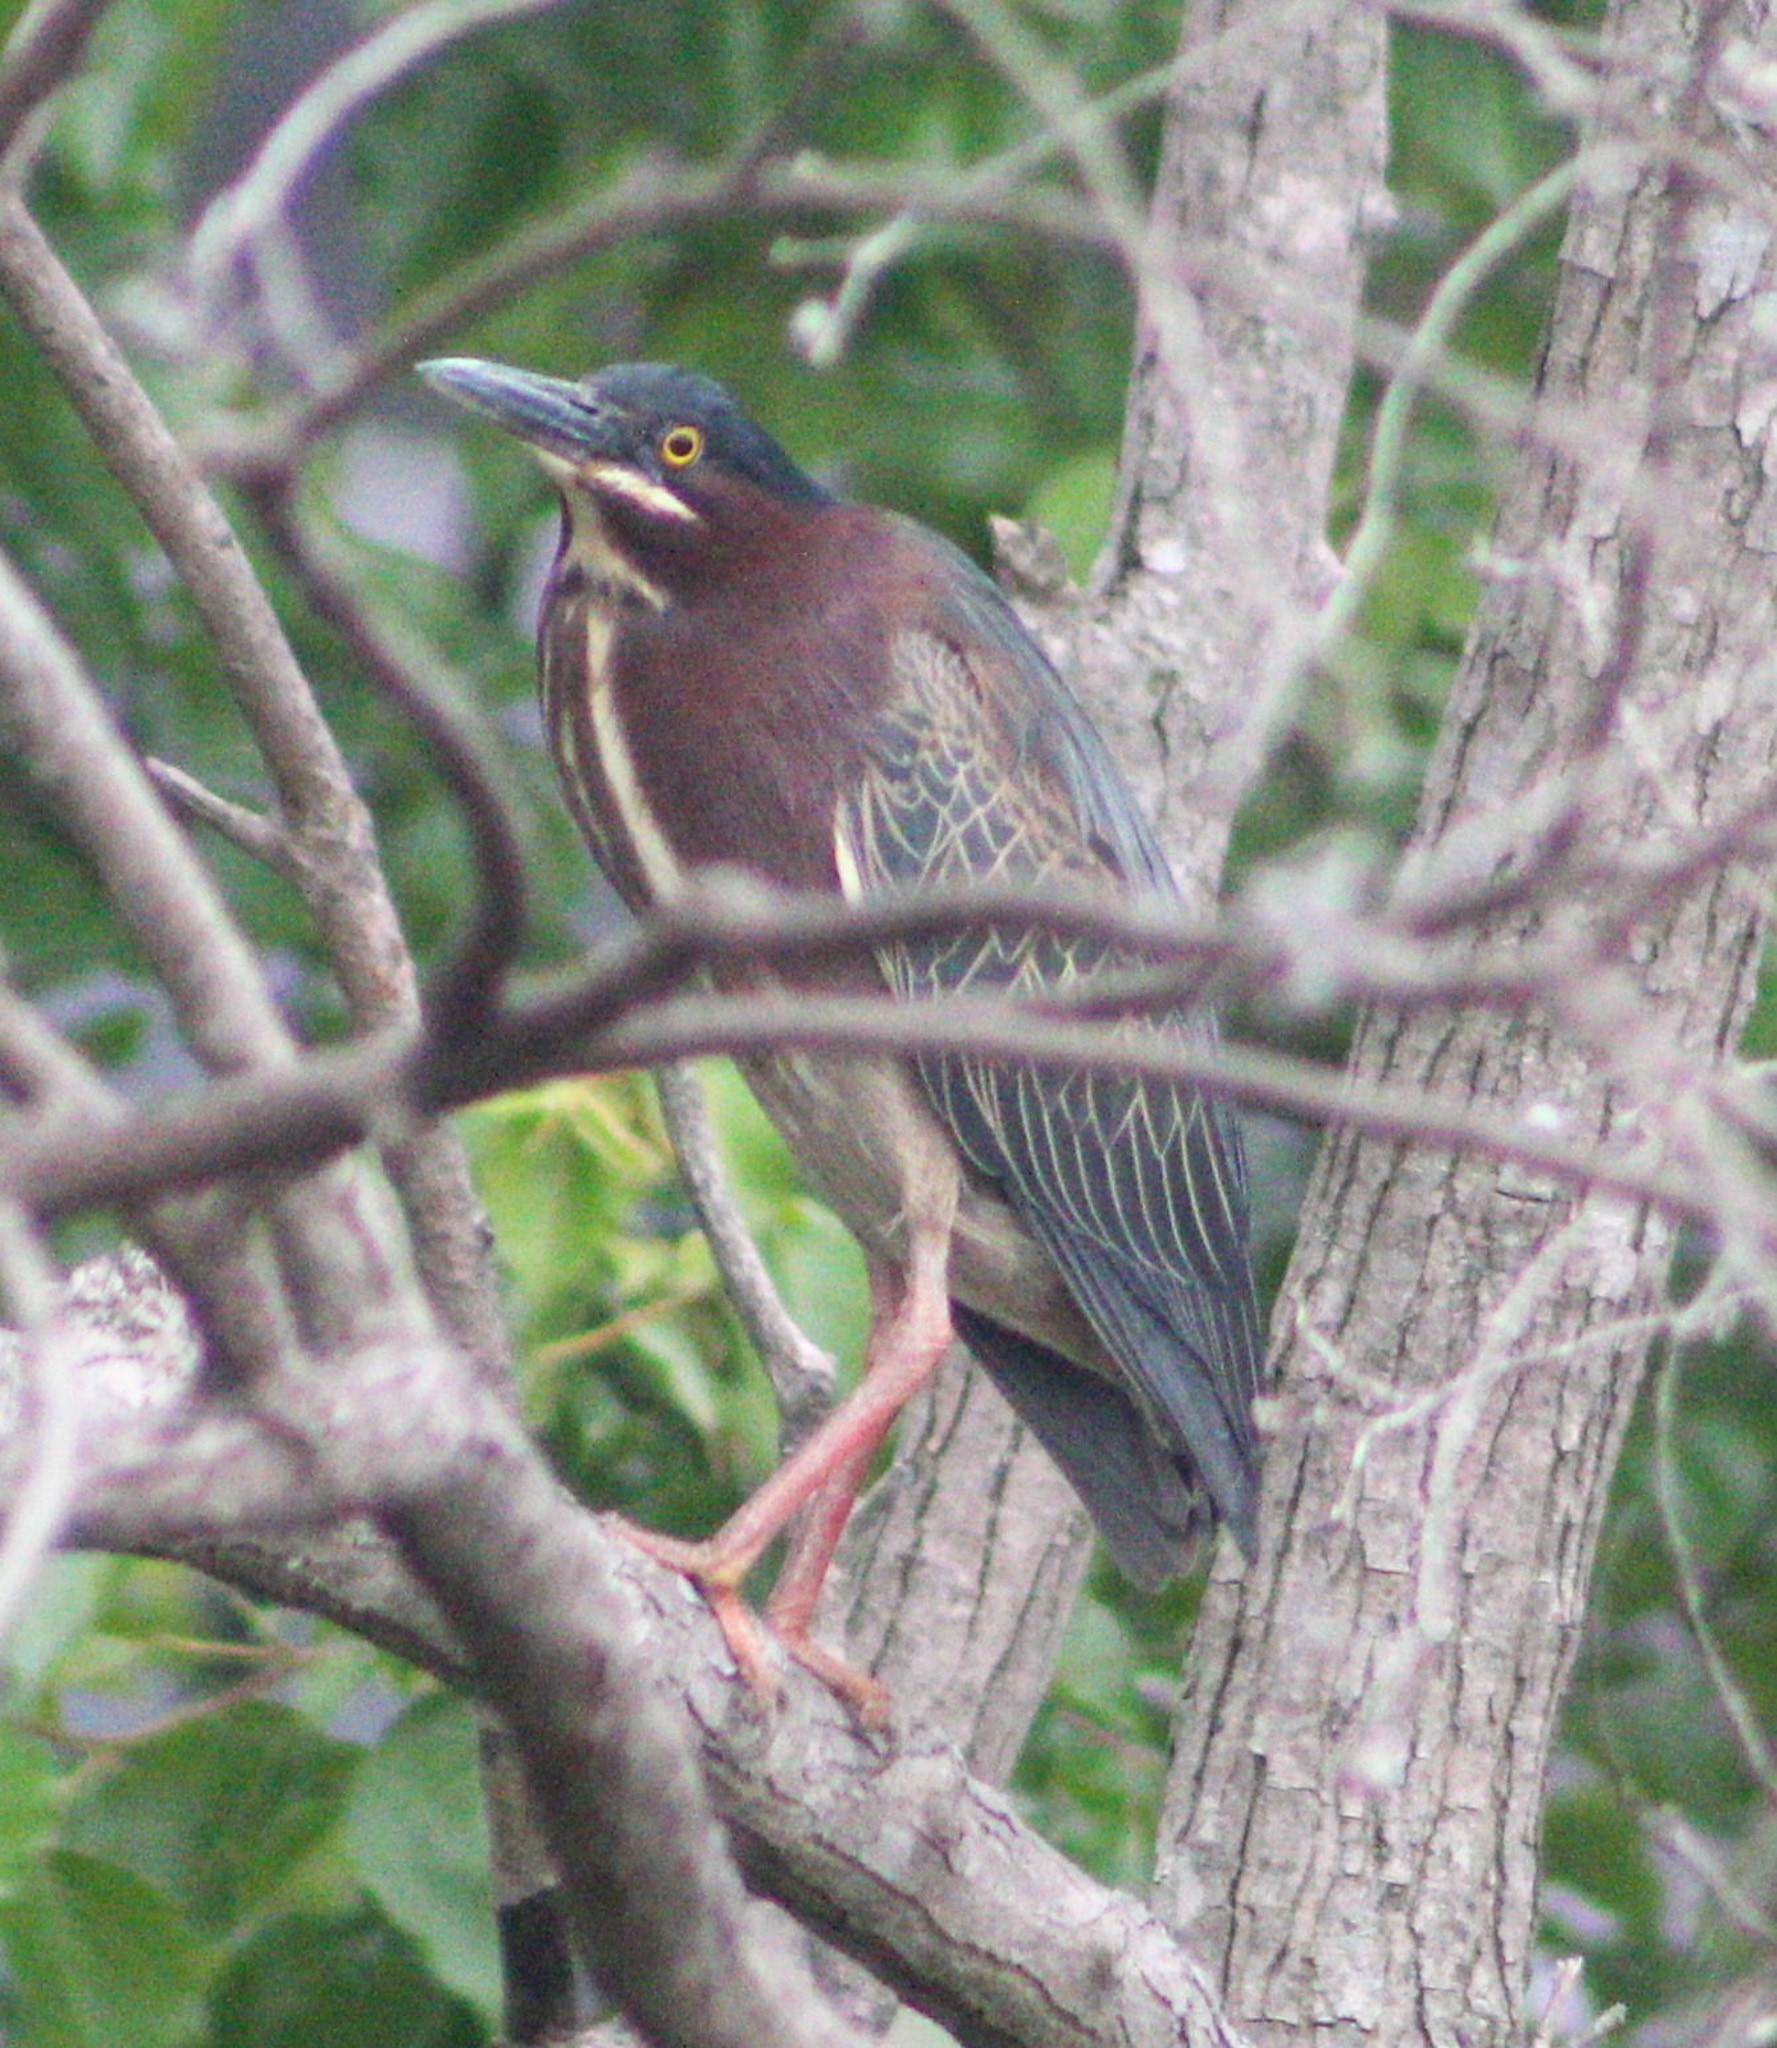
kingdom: Animalia
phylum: Chordata
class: Aves
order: Pelecaniformes
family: Ardeidae
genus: Butorides
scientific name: Butorides virescens
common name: Green heron
